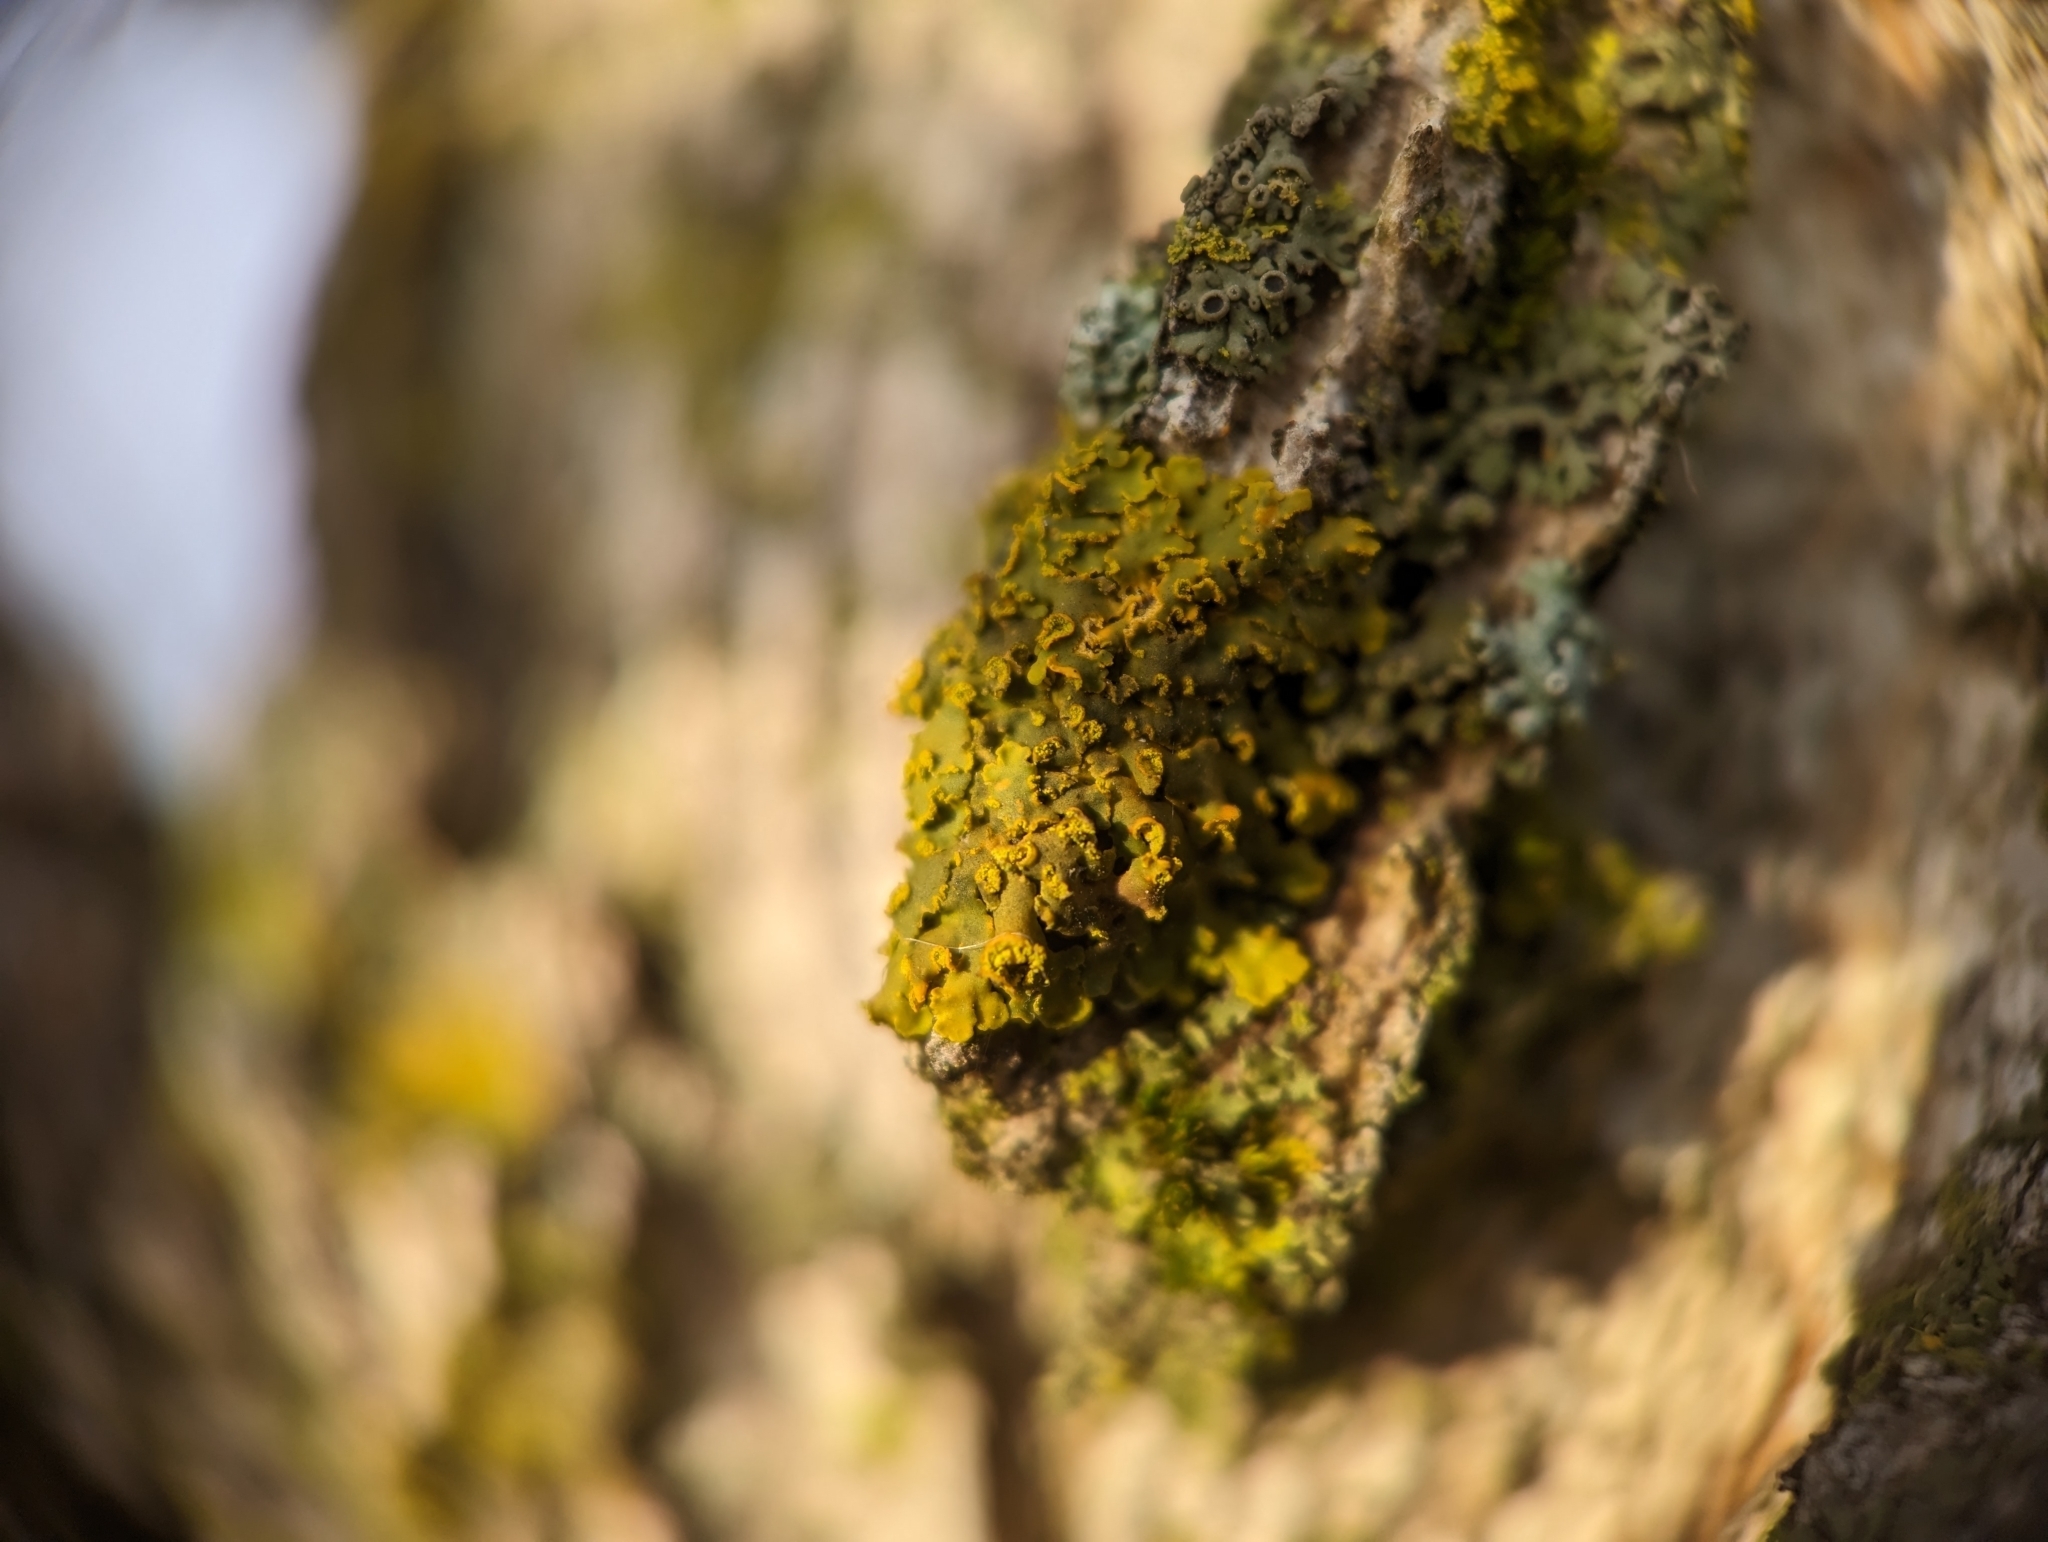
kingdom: Fungi
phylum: Ascomycota
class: Lecanoromycetes
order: Teloschistales
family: Teloschistaceae
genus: Oxneria
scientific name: Oxneria fallax
